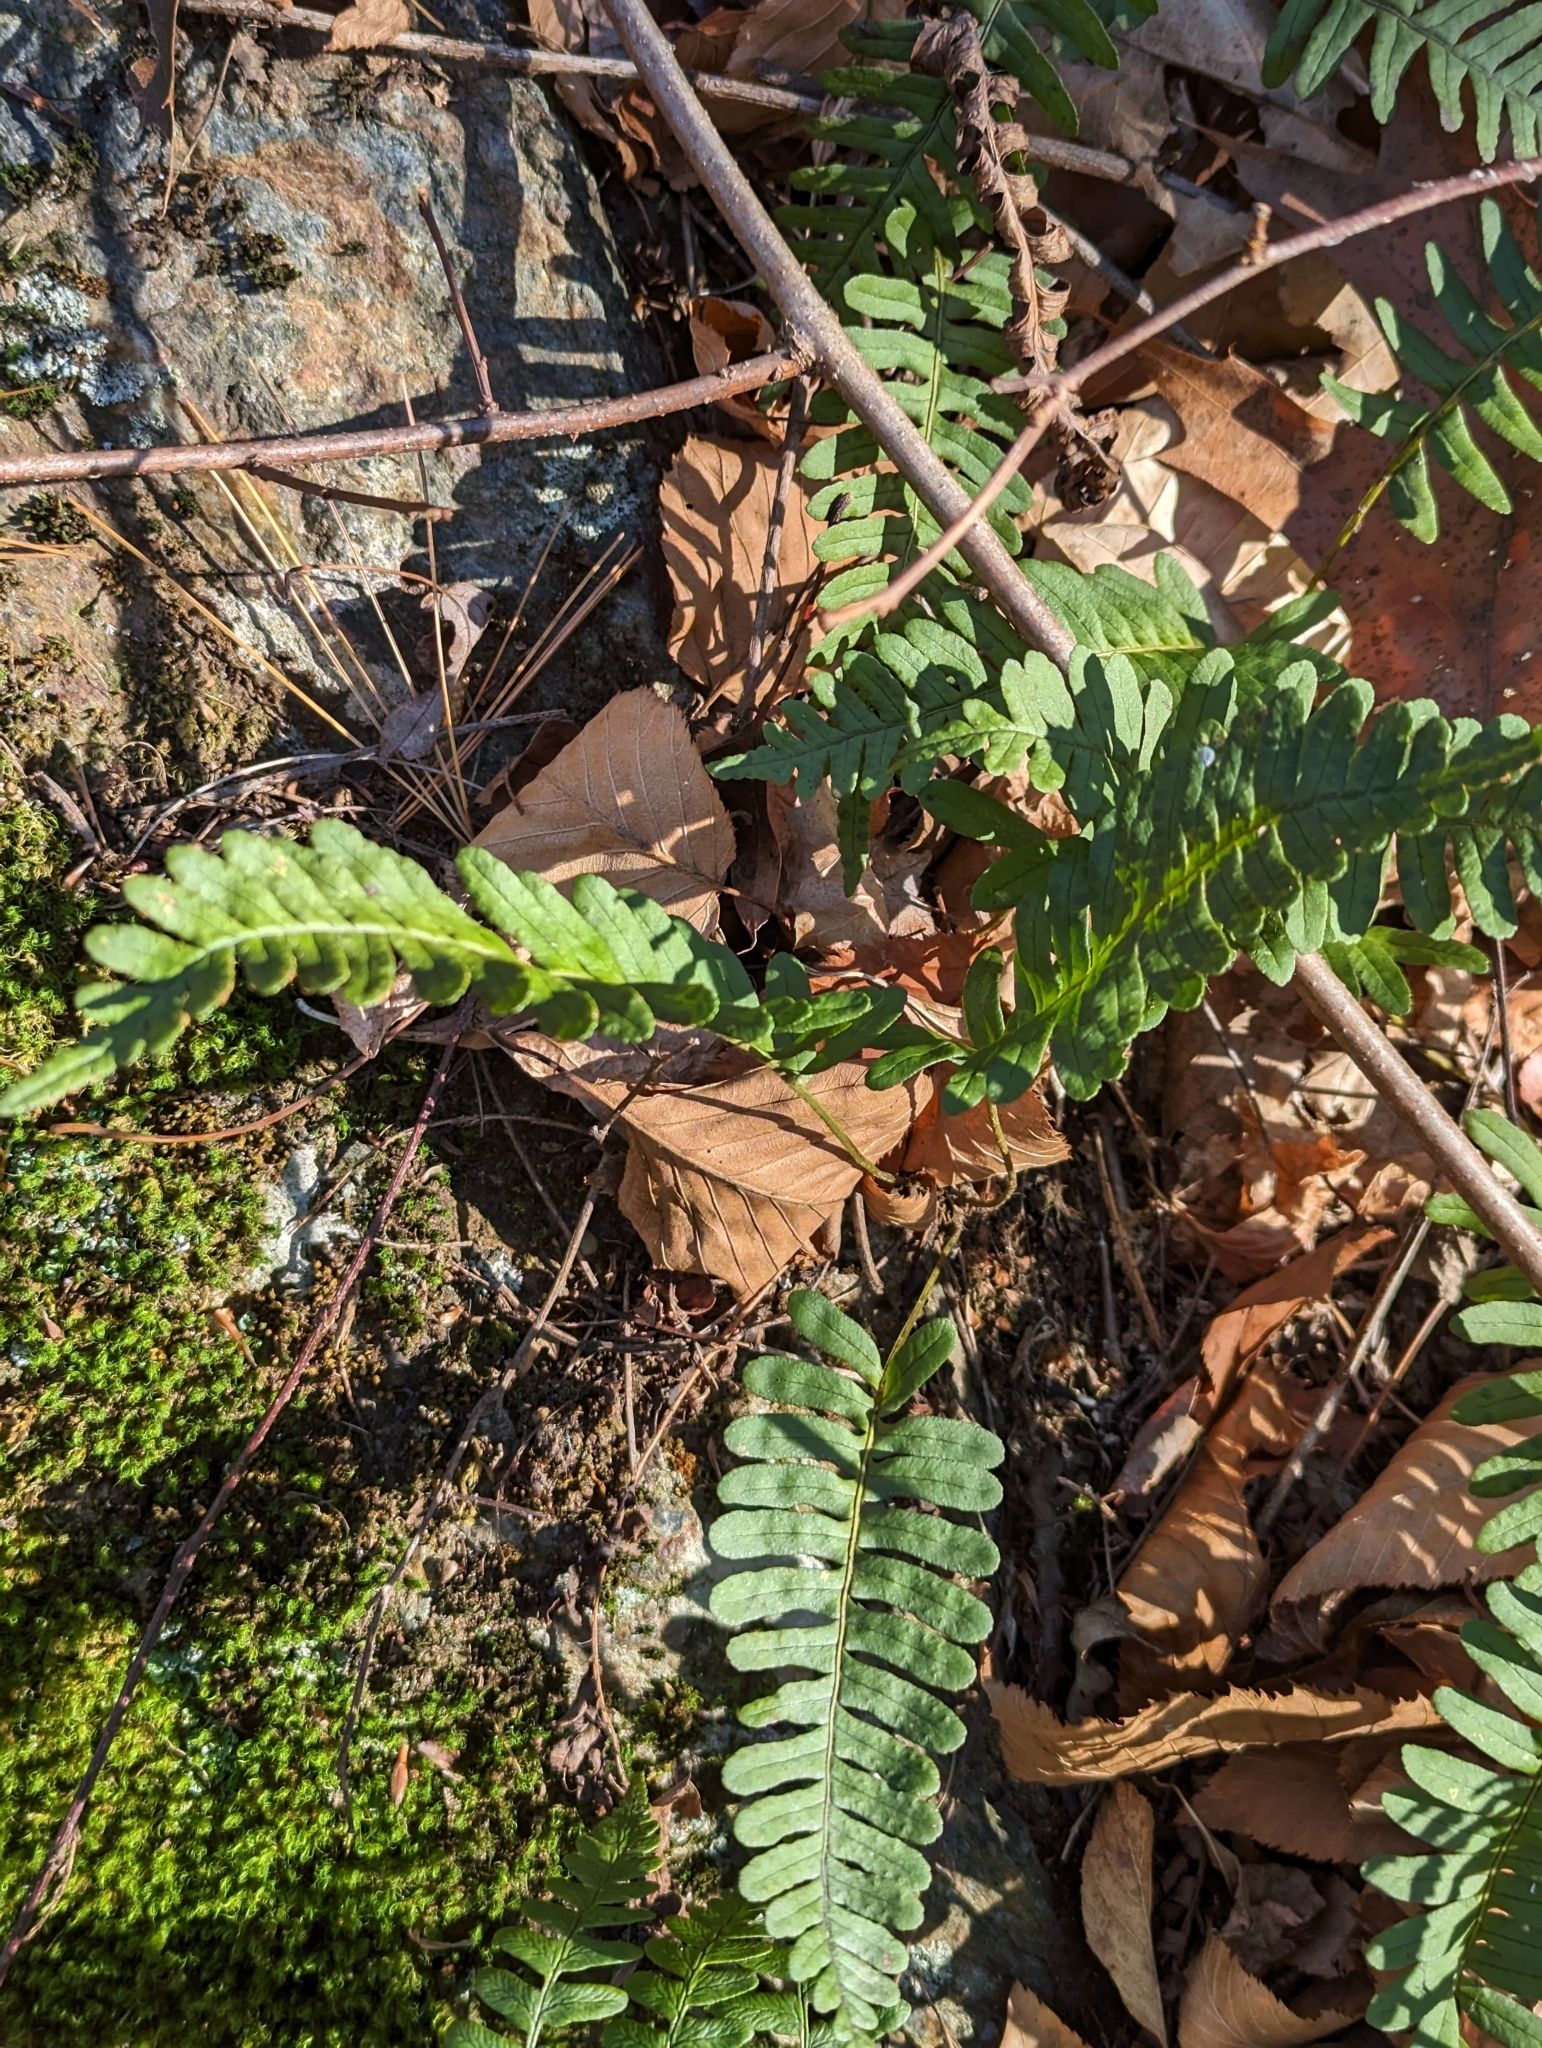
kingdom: Plantae
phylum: Tracheophyta
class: Polypodiopsida
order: Polypodiales
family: Polypodiaceae
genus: Polypodium
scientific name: Polypodium virginianum
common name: American wall fern
